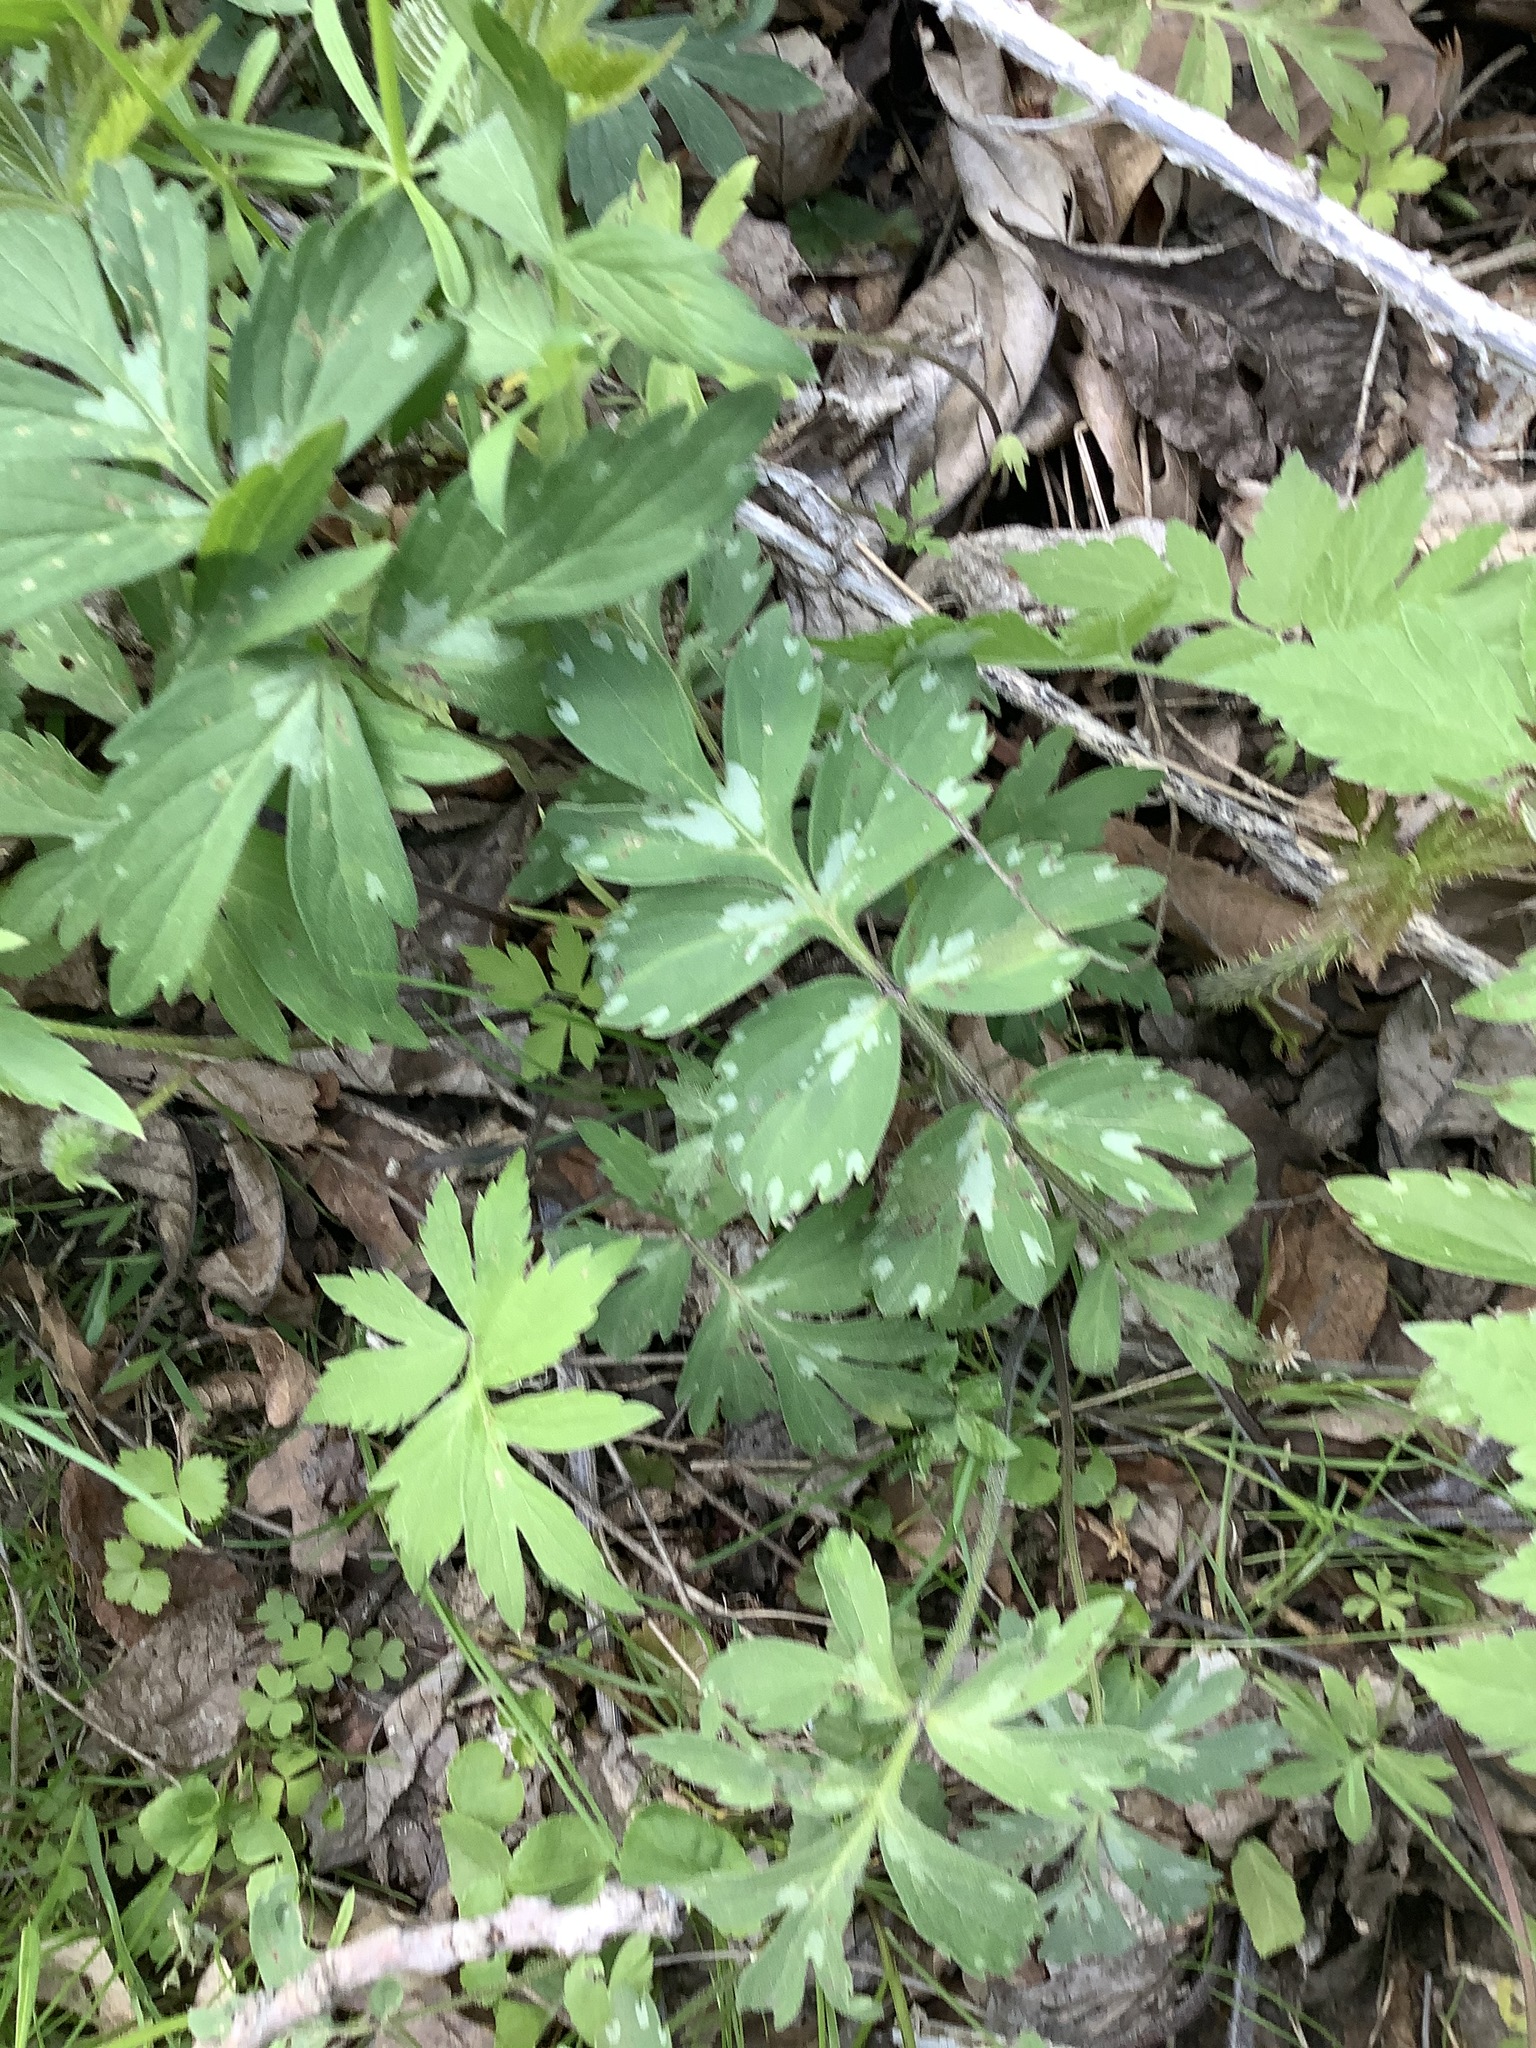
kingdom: Plantae
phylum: Tracheophyta
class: Magnoliopsida
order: Boraginales
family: Hydrophyllaceae
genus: Hydrophyllum
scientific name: Hydrophyllum virginianum
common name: Virginia waterleaf
